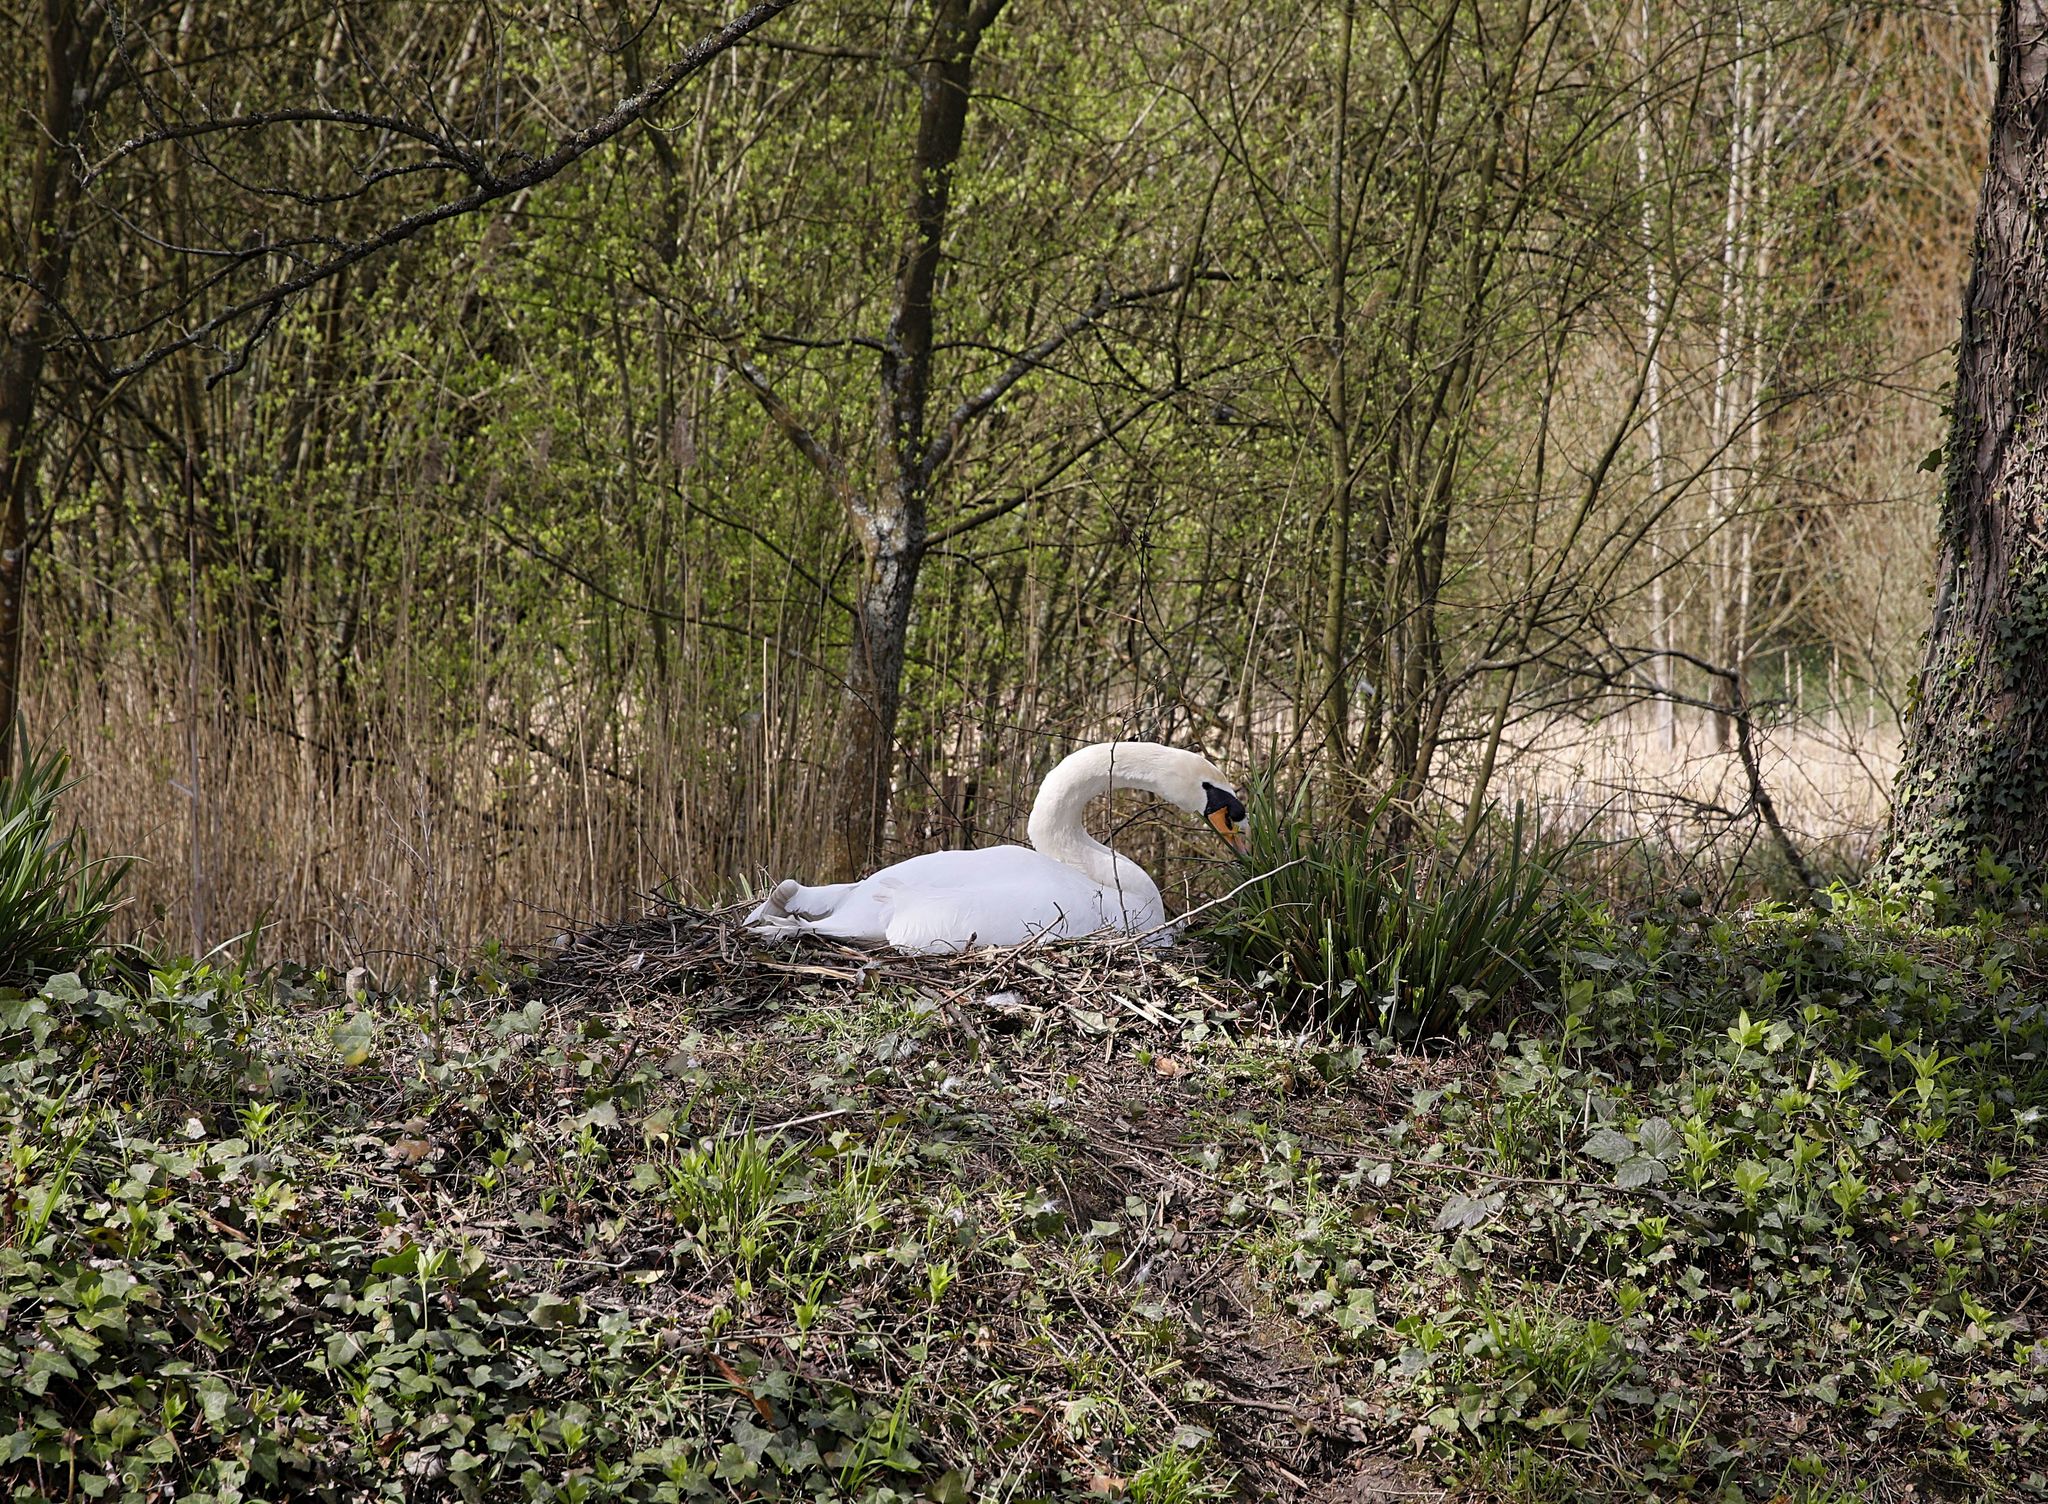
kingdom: Animalia
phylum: Chordata
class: Aves
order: Anseriformes
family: Anatidae
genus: Cygnus
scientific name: Cygnus olor
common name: Mute swan
